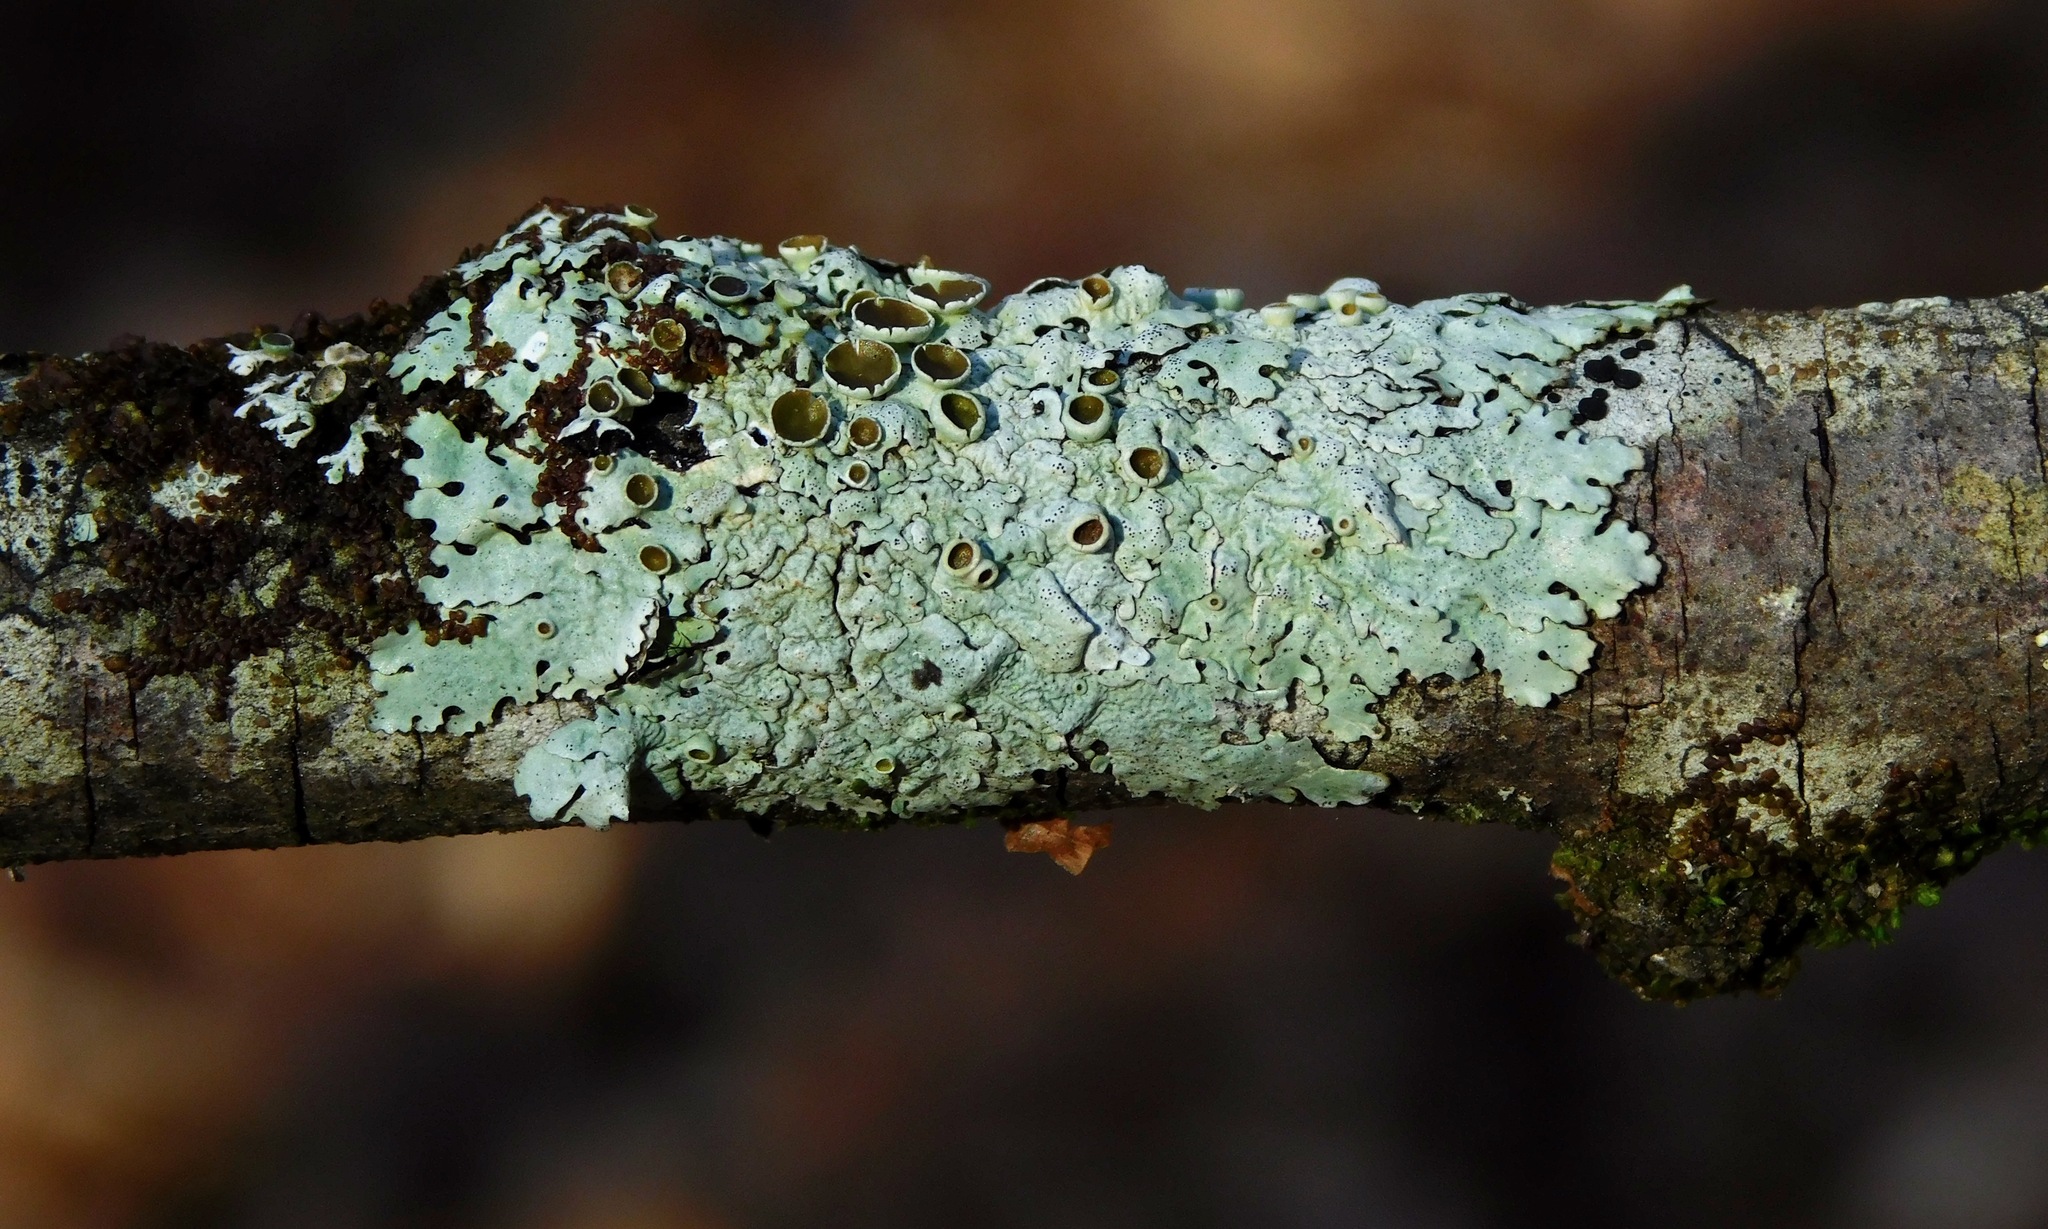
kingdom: Fungi
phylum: Ascomycota
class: Lecanoromycetes
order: Lecanorales
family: Parmeliaceae
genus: Myelochroa
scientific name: Myelochroa galbina
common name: Smooth axil-bristle lichen
